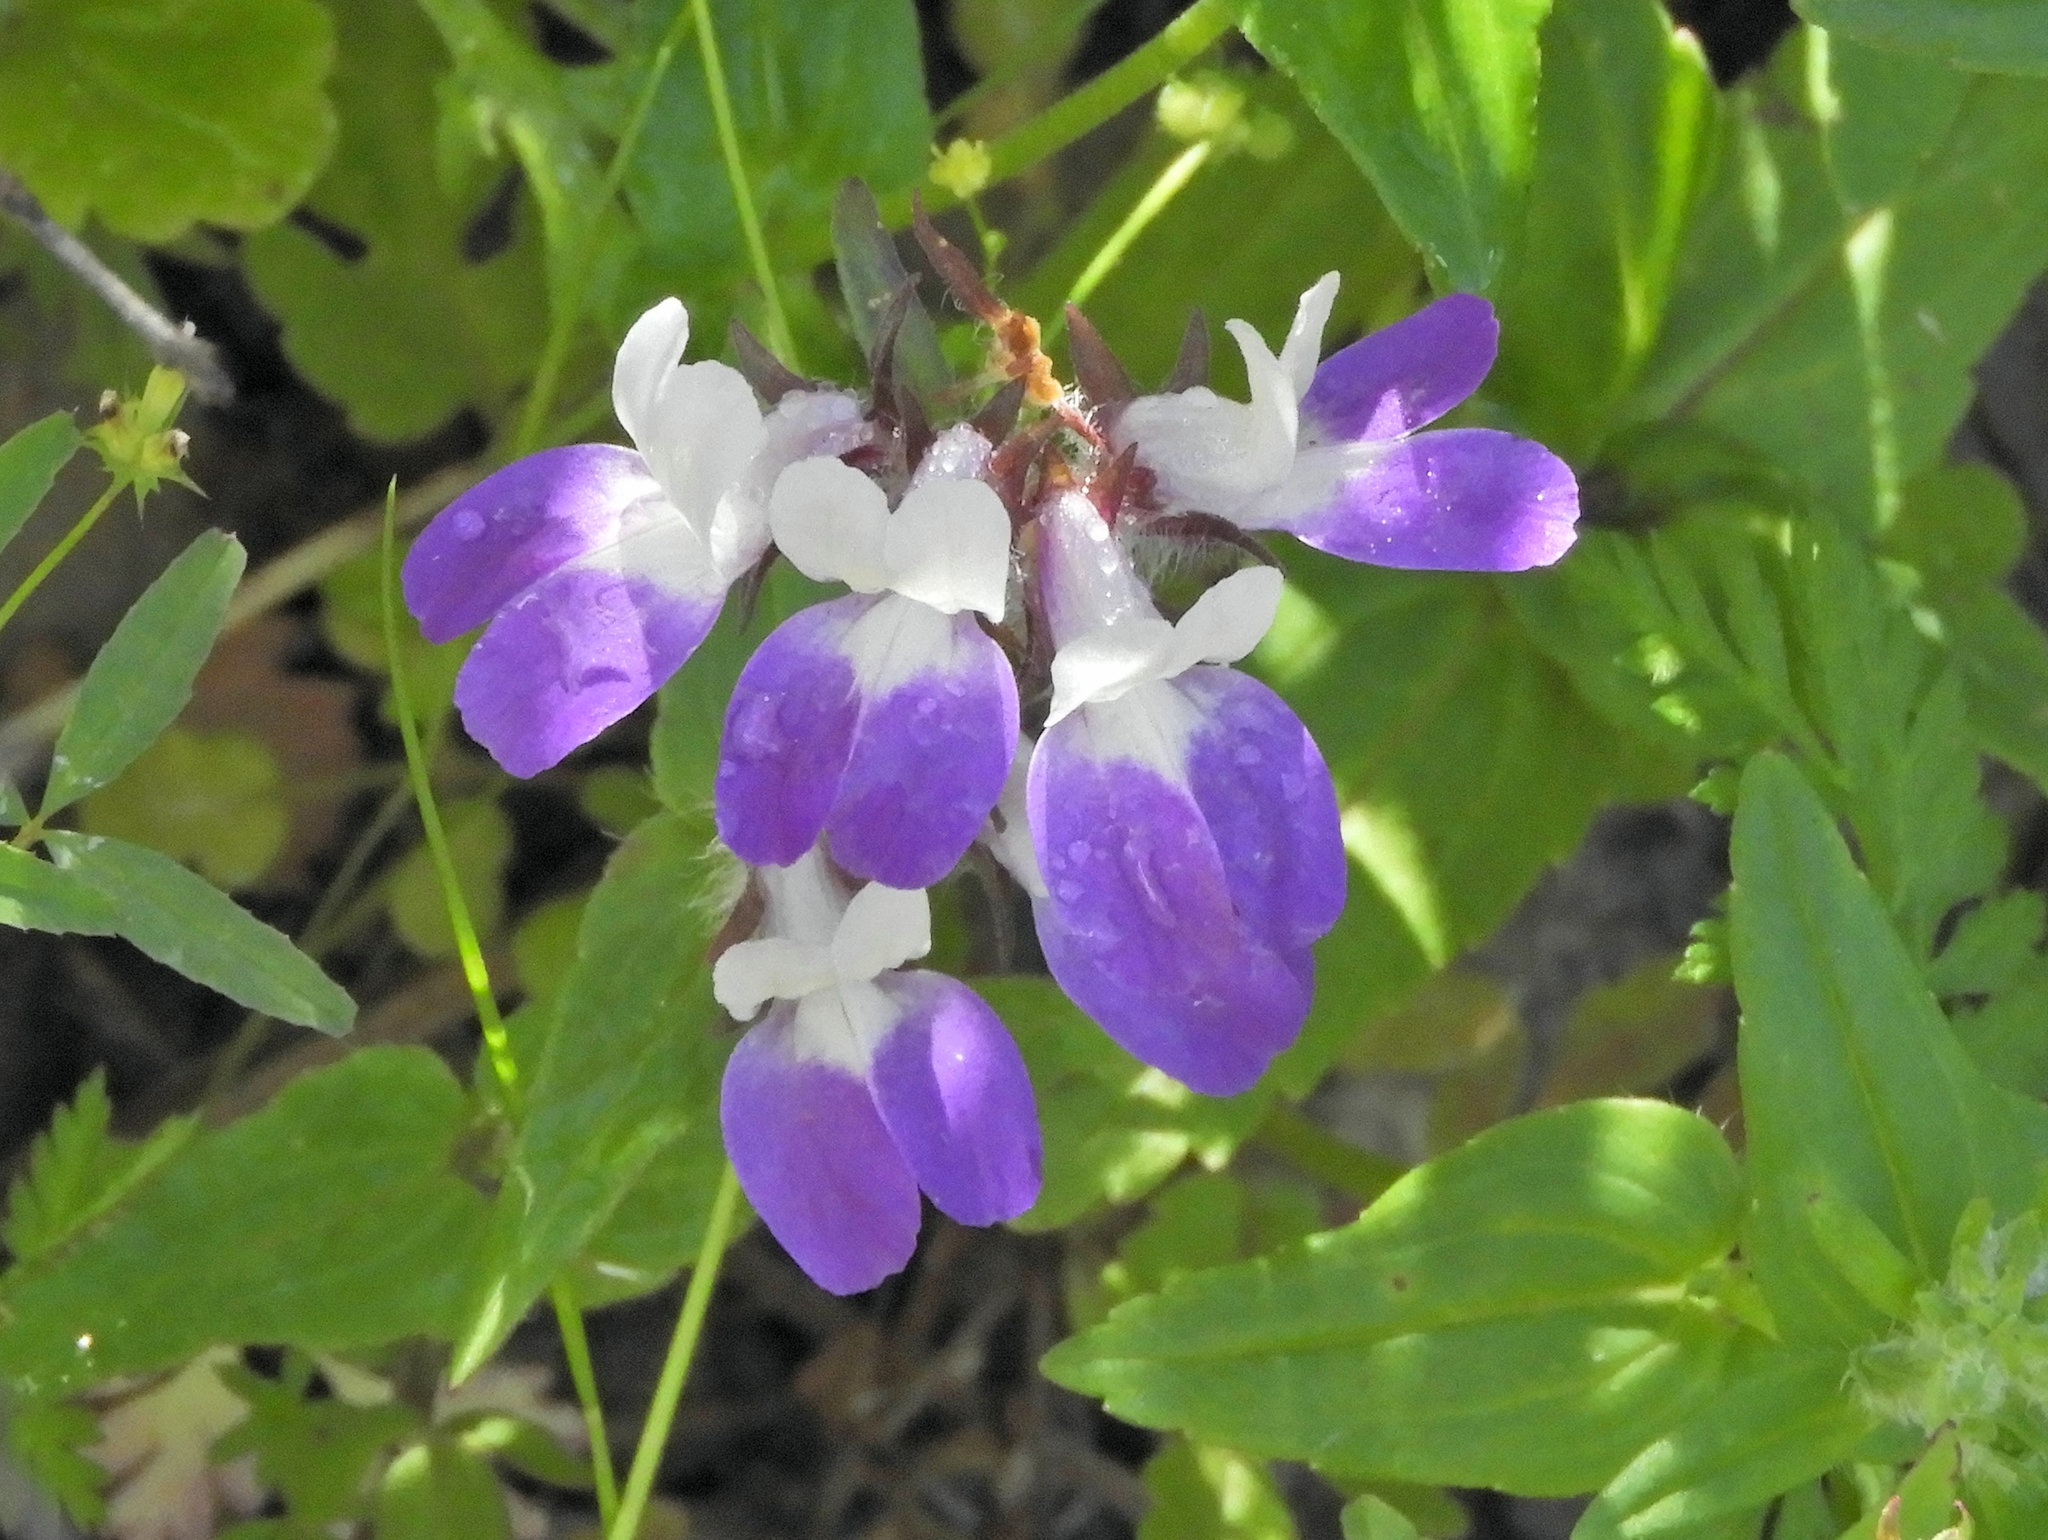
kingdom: Plantae
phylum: Tracheophyta
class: Magnoliopsida
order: Lamiales
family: Plantaginaceae
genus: Collinsia
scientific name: Collinsia heterophylla
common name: Chinese-houses
